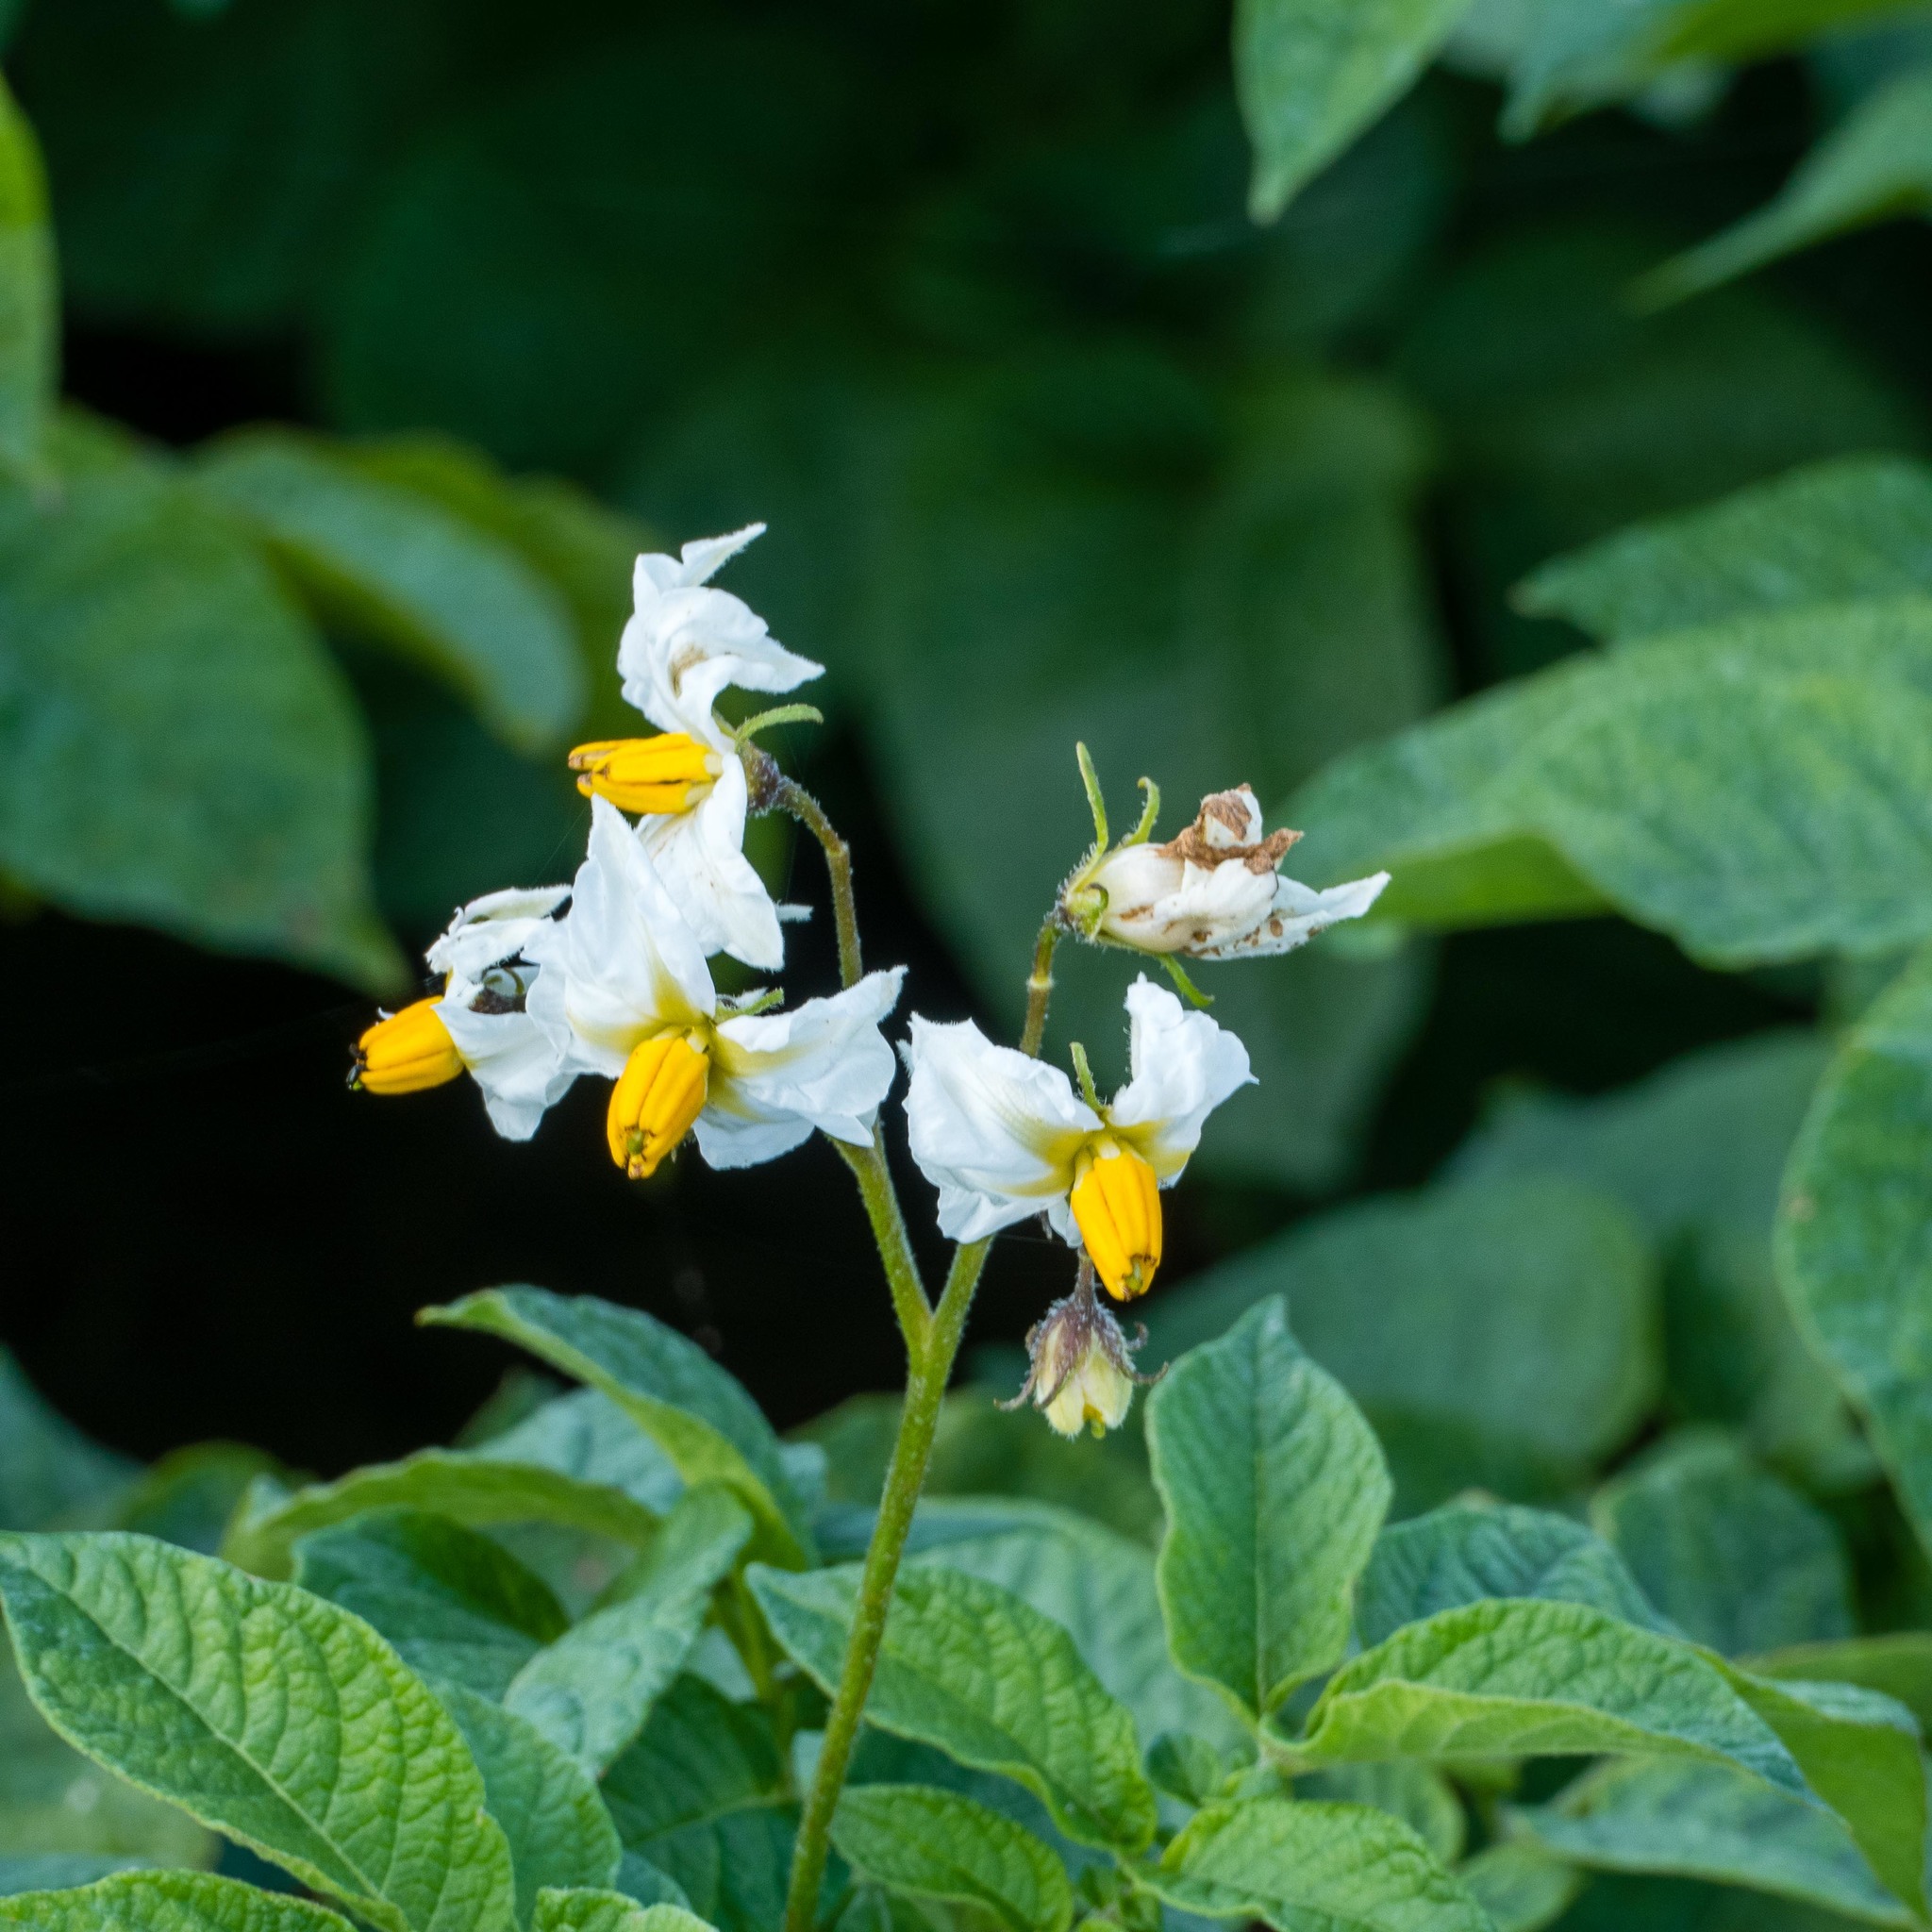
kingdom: Plantae
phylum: Tracheophyta
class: Magnoliopsida
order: Solanales
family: Solanaceae
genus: Solanum
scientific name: Solanum tuberosum
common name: Potato
